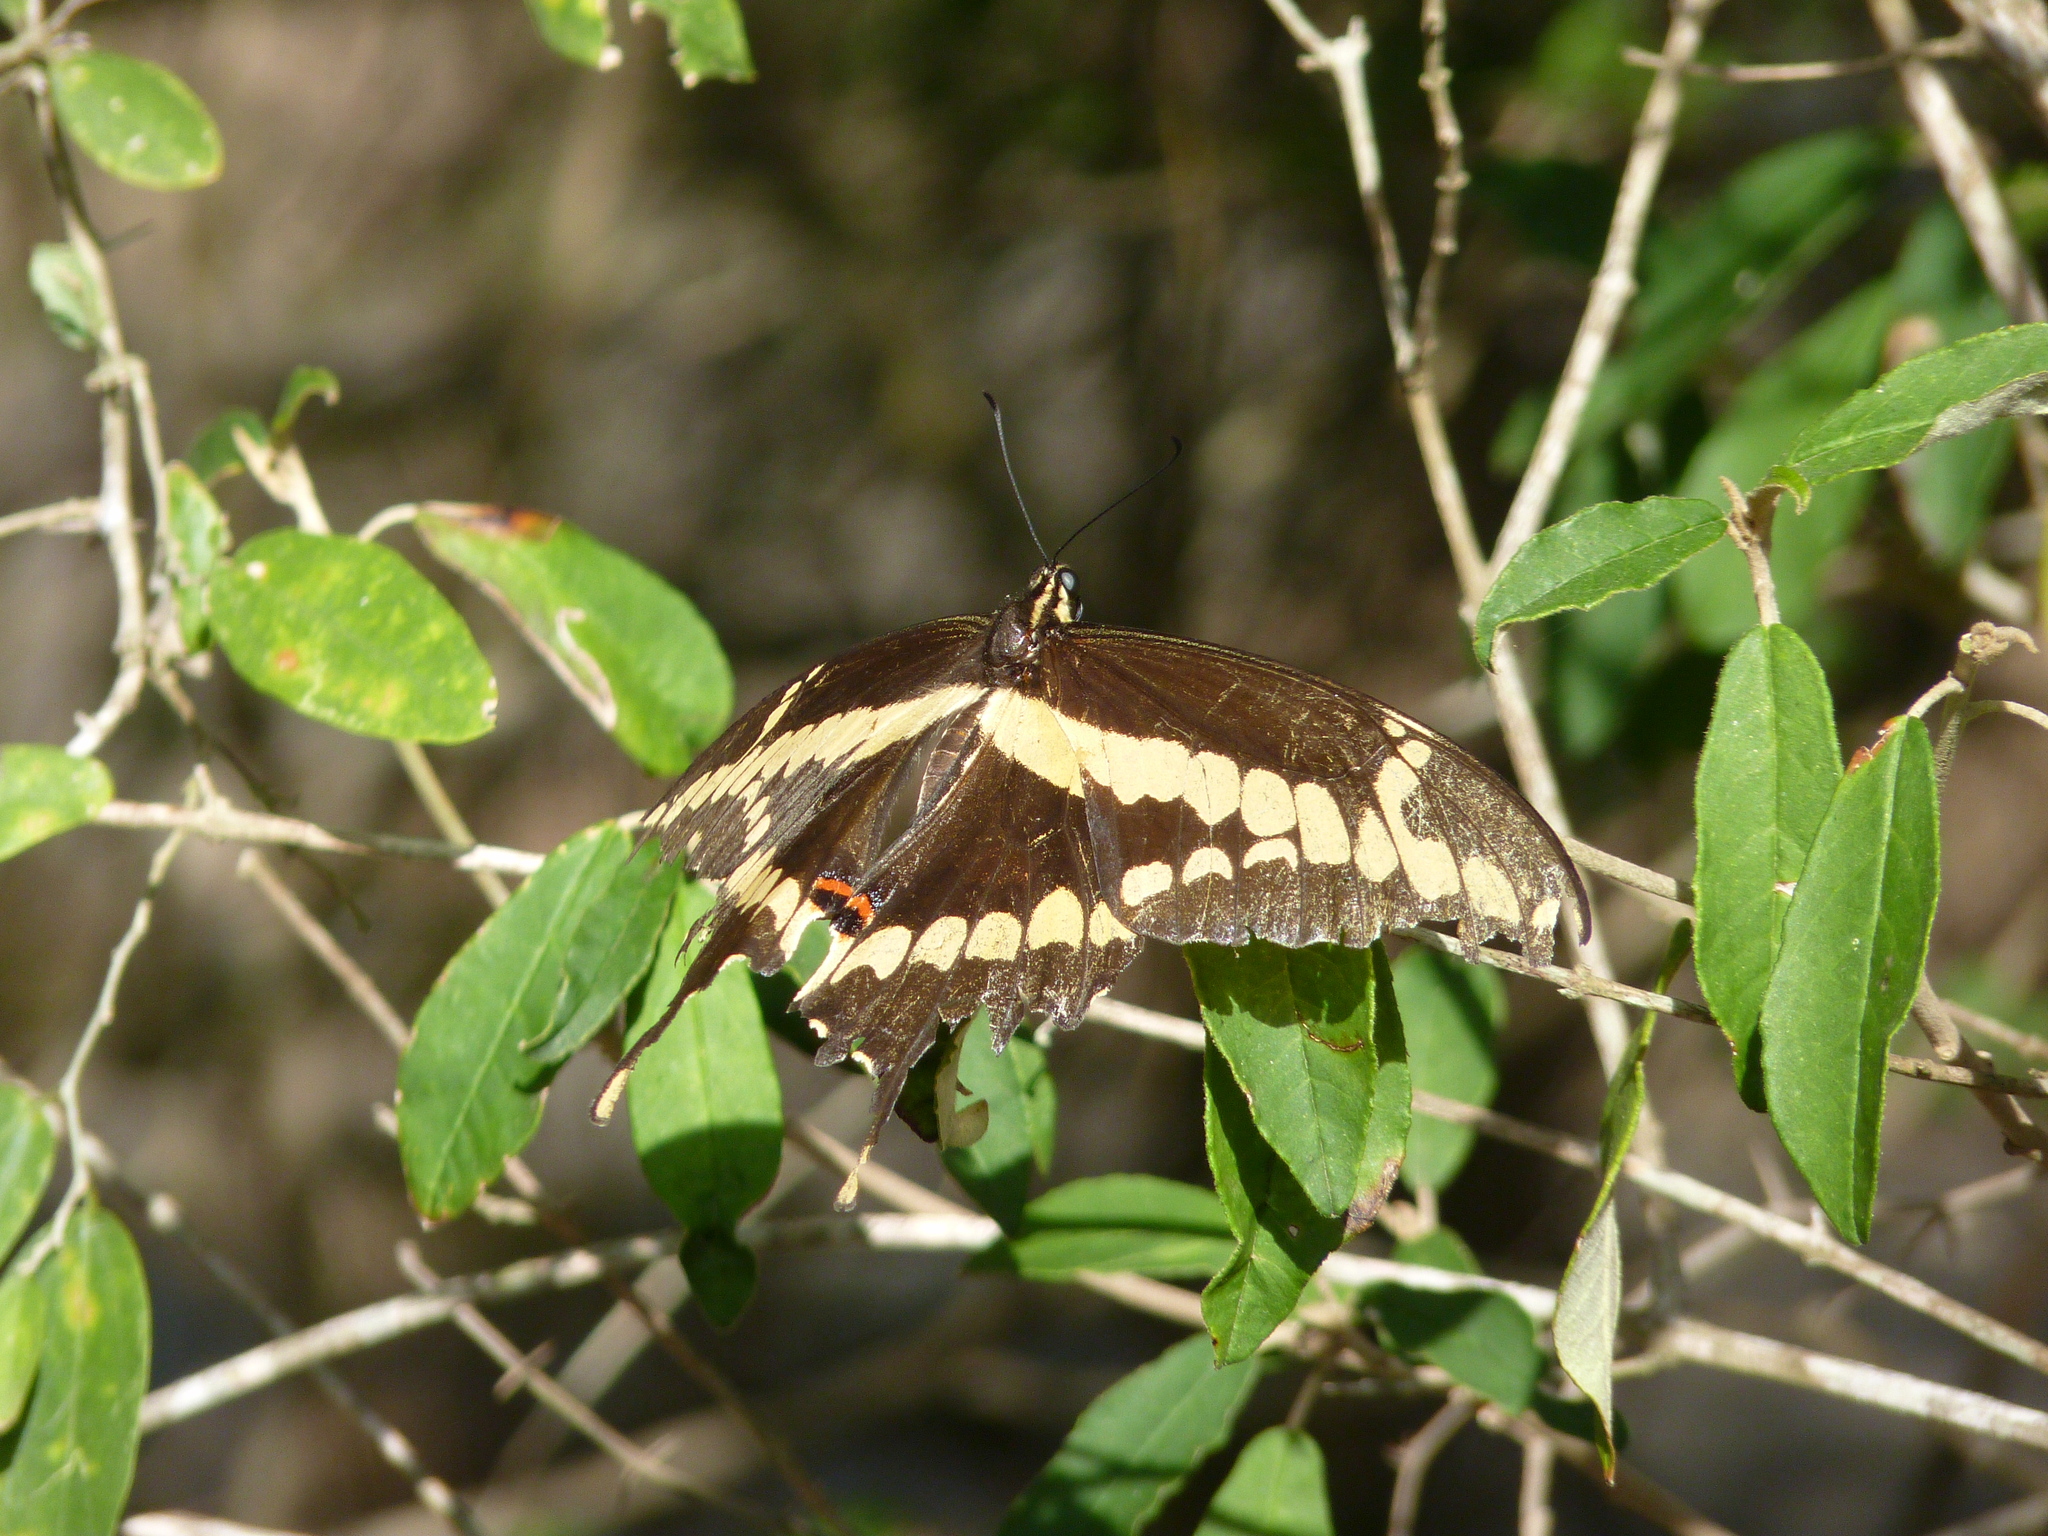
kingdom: Animalia
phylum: Arthropoda
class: Insecta
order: Lepidoptera
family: Papilionidae
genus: Papilio
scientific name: Papilio rumiko
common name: Western giant swallowtail
